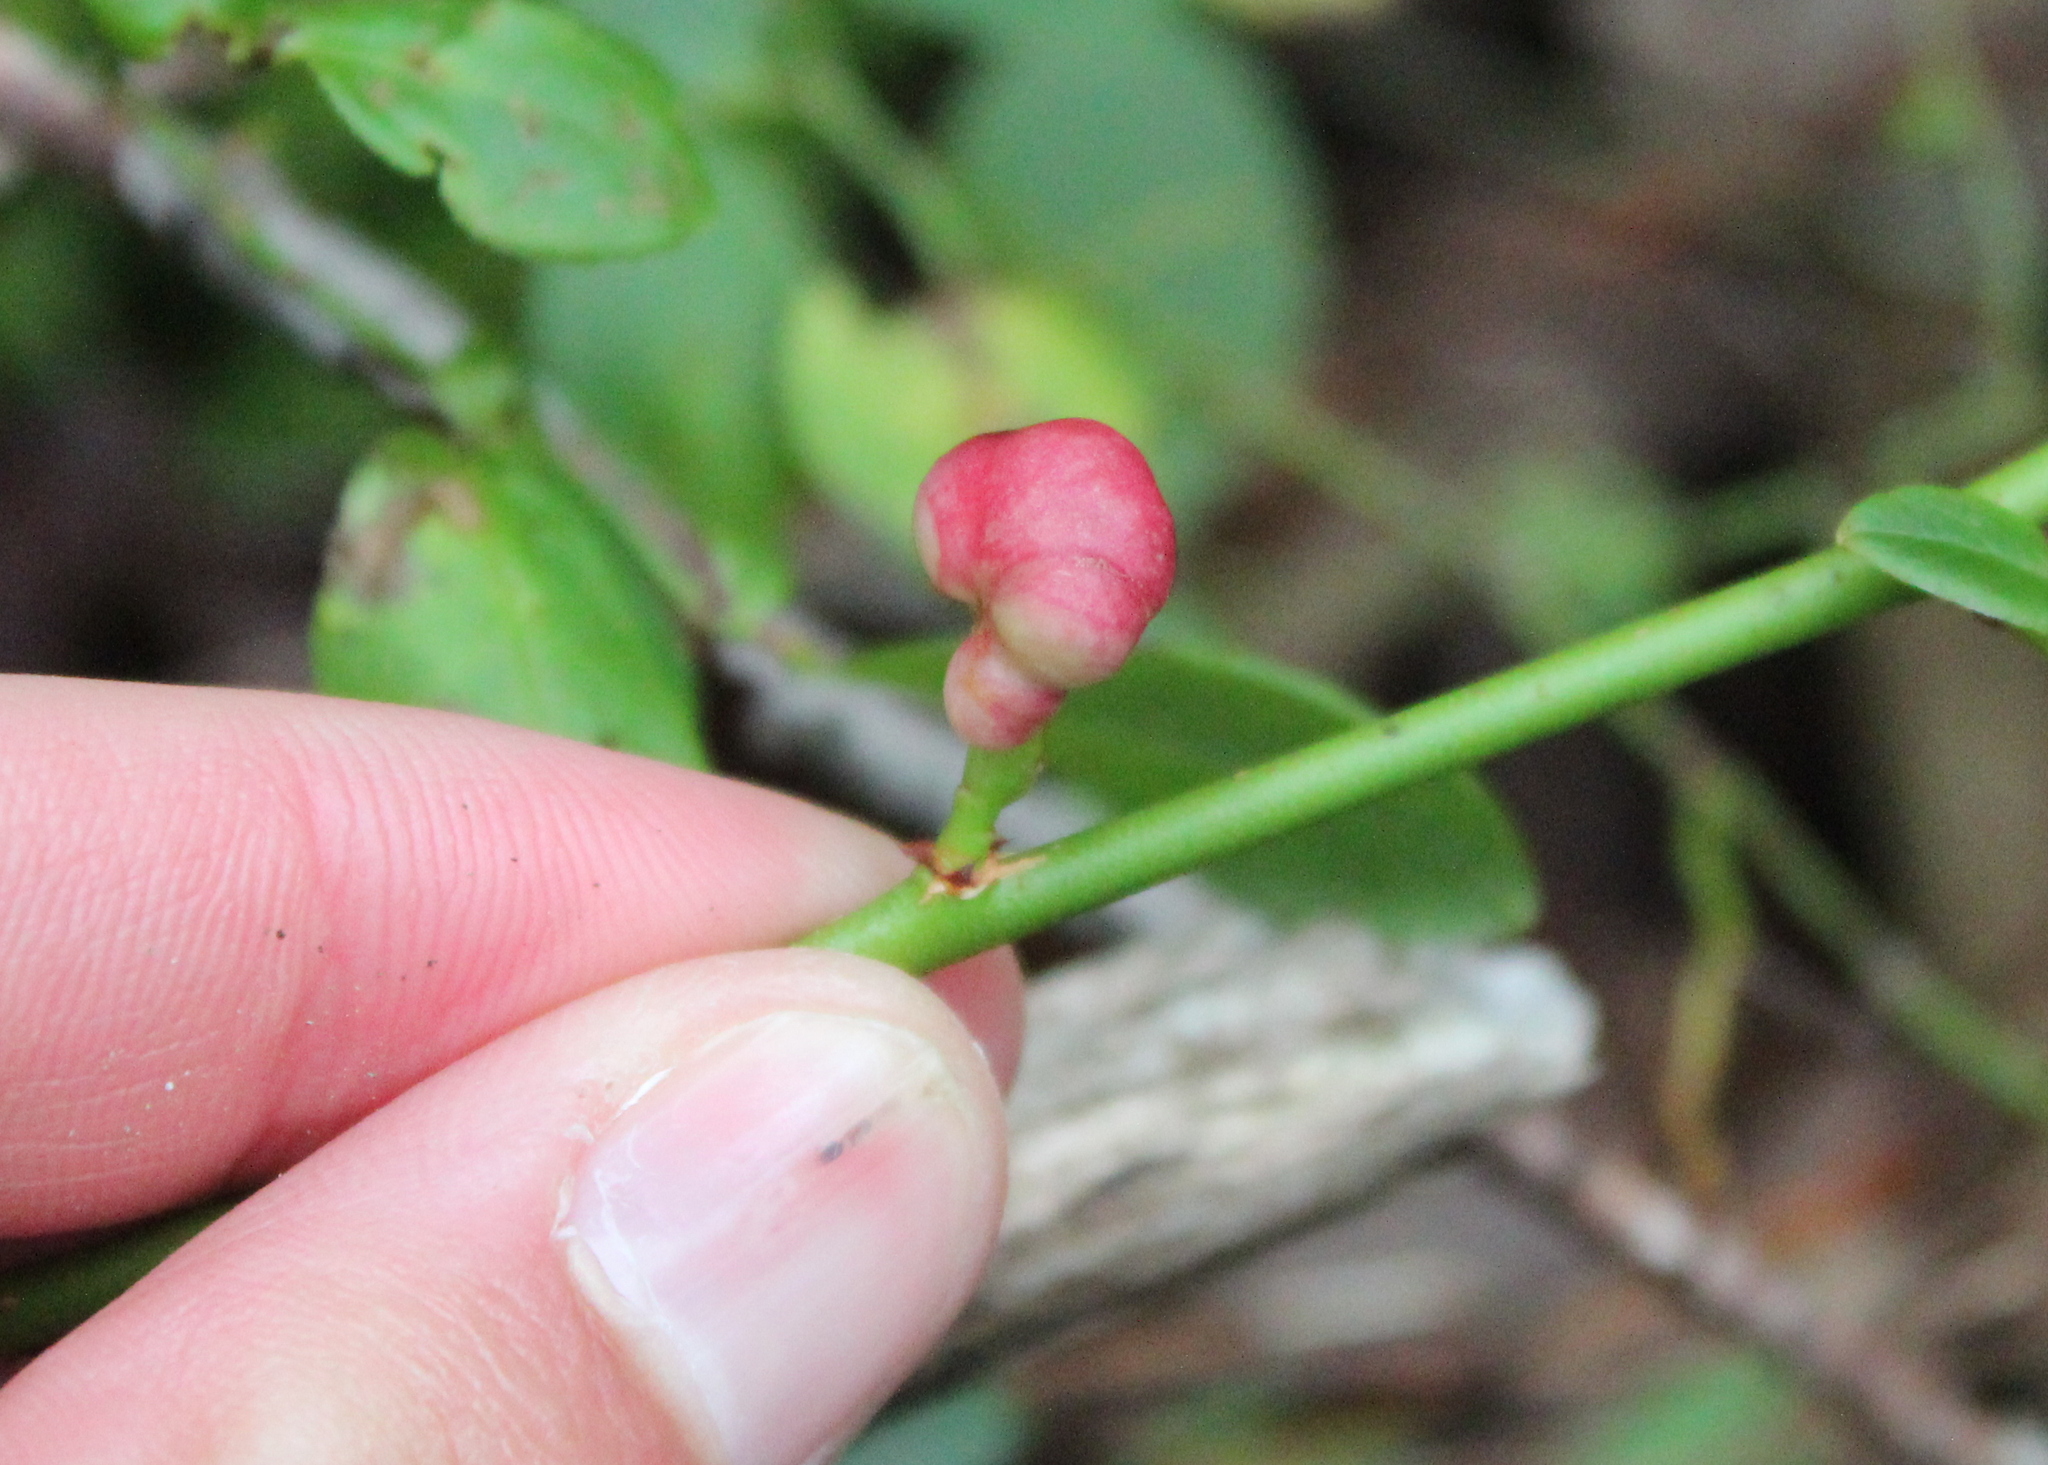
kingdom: Animalia
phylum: Arthropoda
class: Insecta
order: Hymenoptera
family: Pteromalidae
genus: Hemadas
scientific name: Hemadas nubilipennis
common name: Blueberry stem gall wasp
